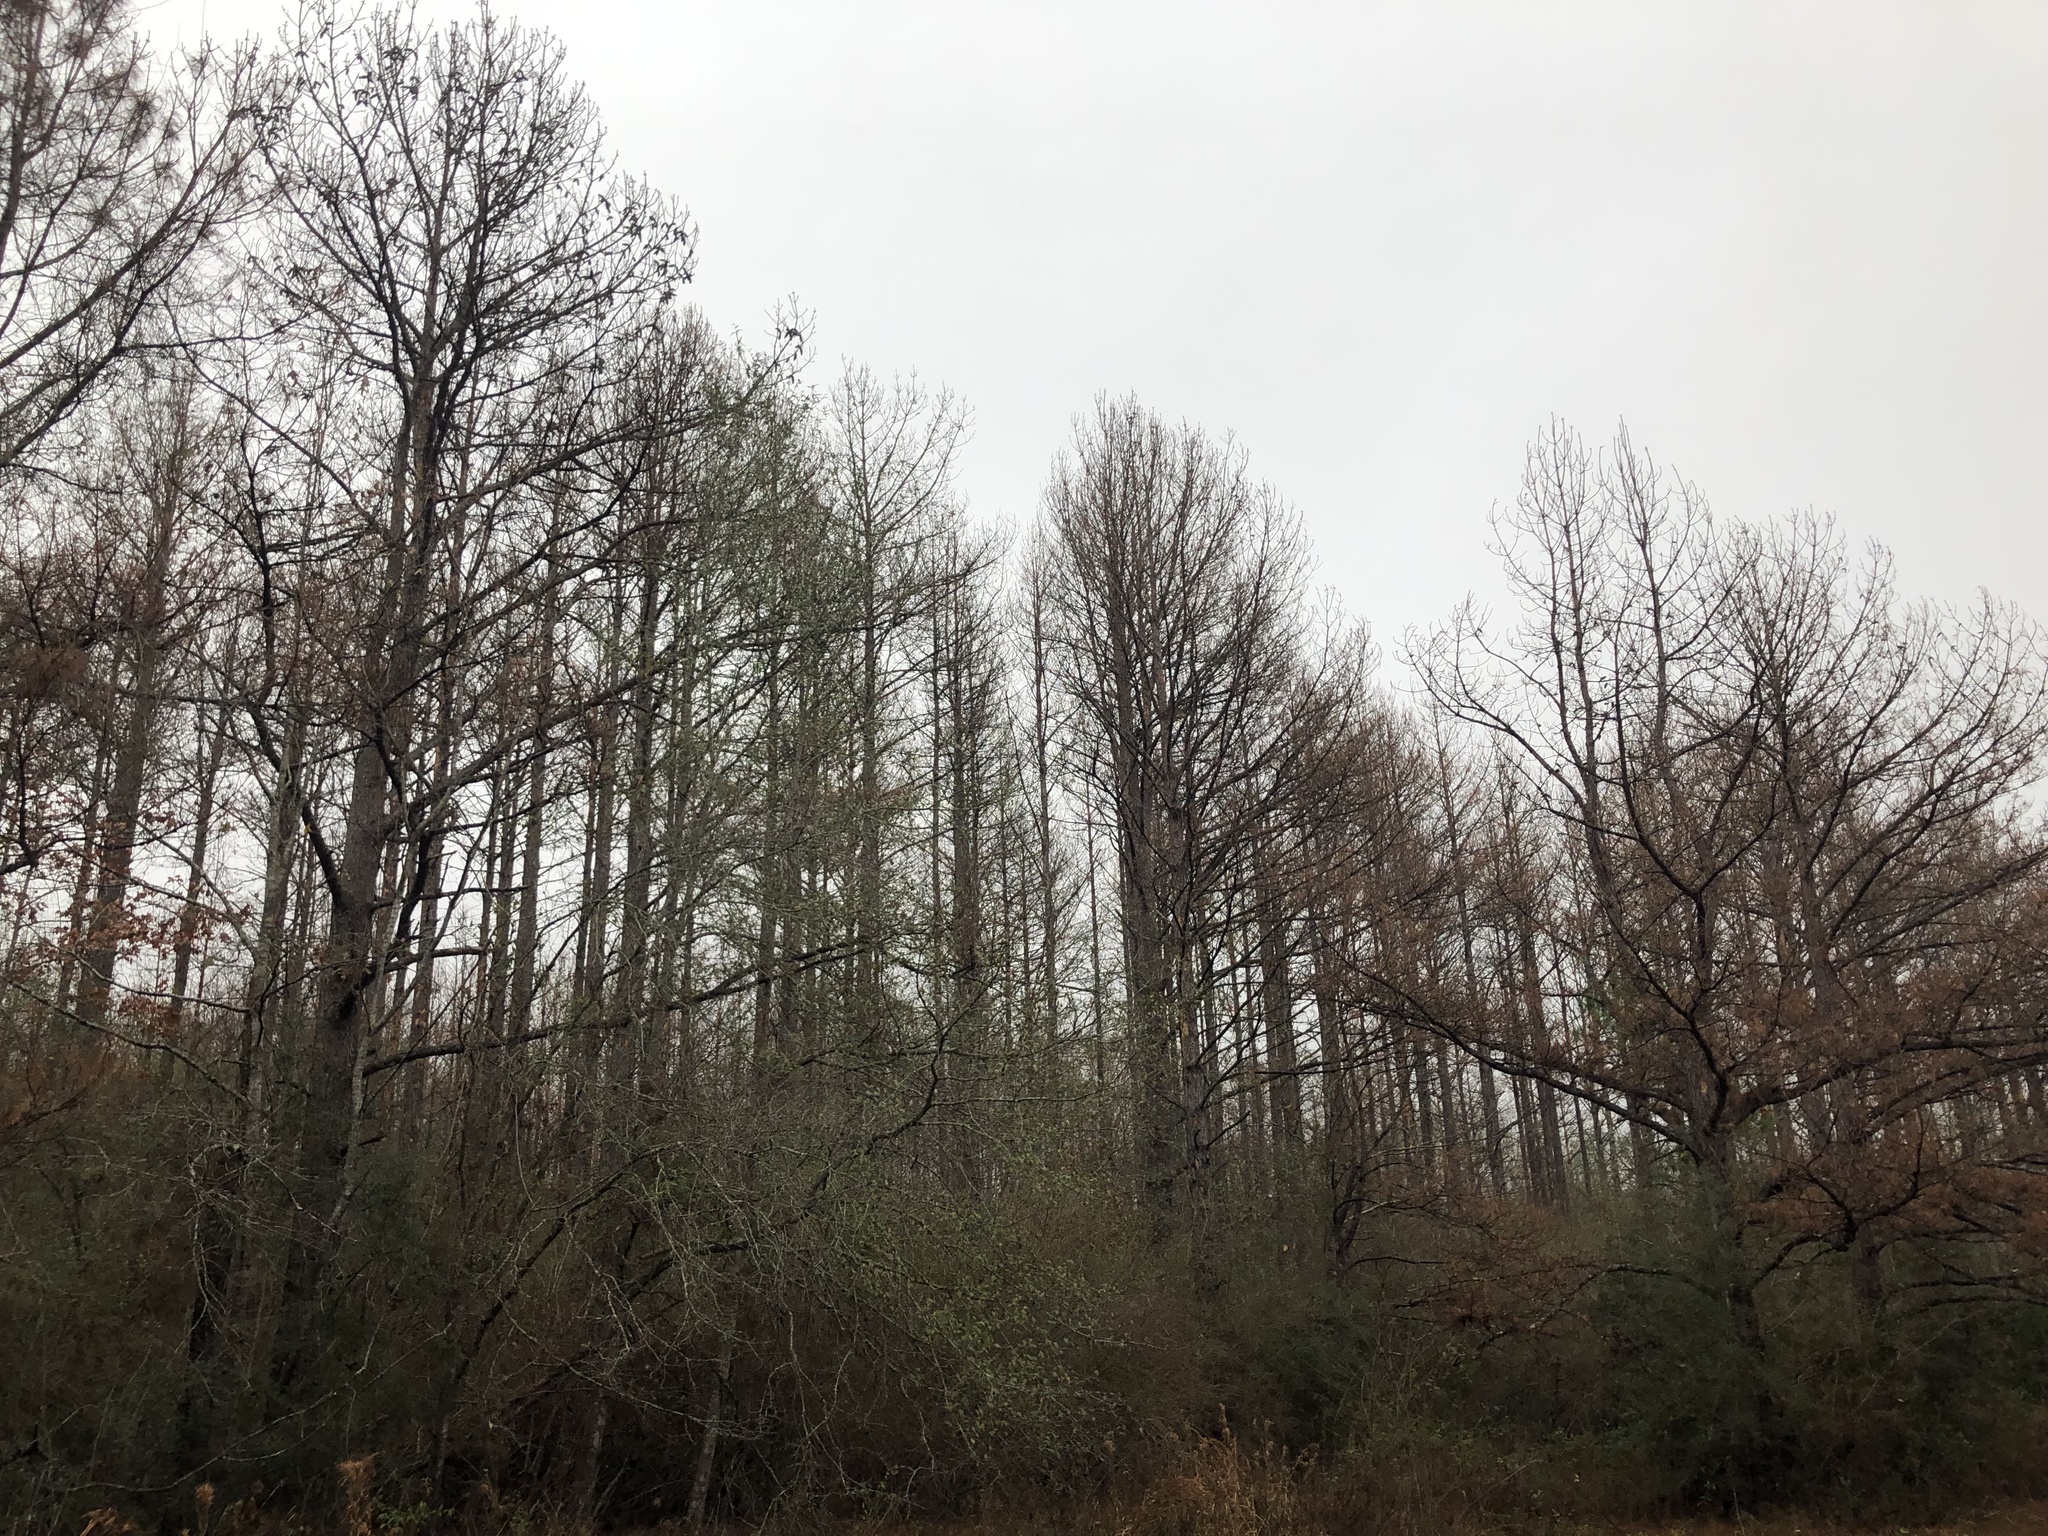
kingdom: Plantae
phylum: Tracheophyta
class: Pinopsida
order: Pinales
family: Pinaceae
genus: Pinus
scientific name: Pinus taeda
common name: Loblolly pine
